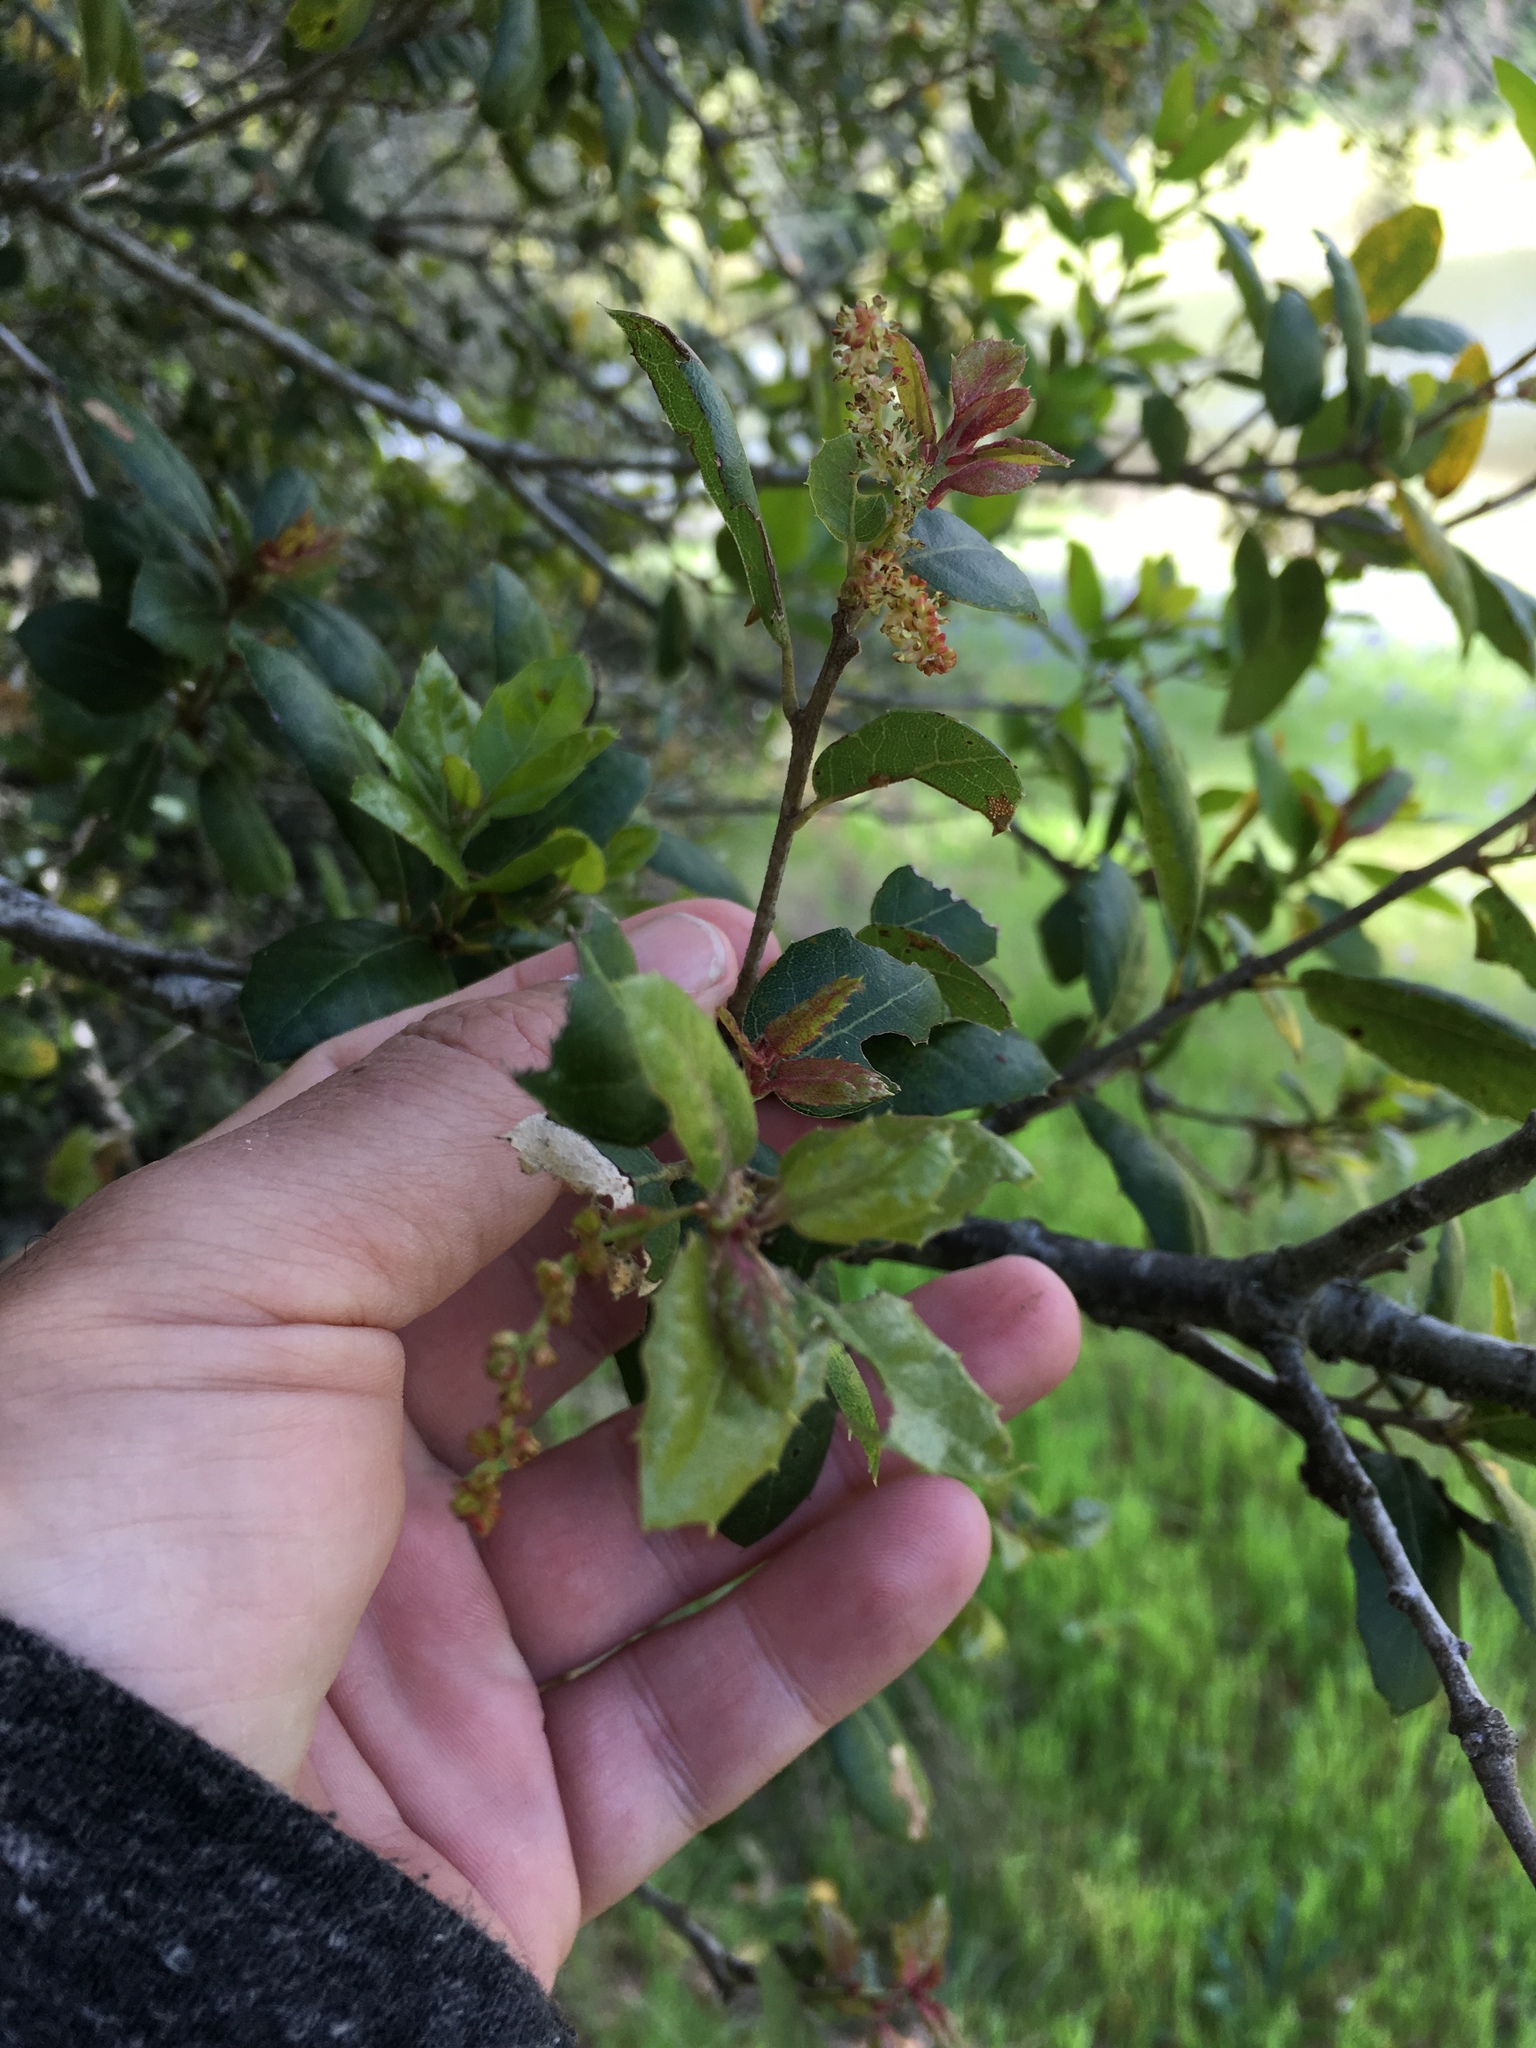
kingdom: Plantae
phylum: Tracheophyta
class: Magnoliopsida
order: Fagales
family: Fagaceae
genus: Quercus
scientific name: Quercus agrifolia
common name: California live oak
